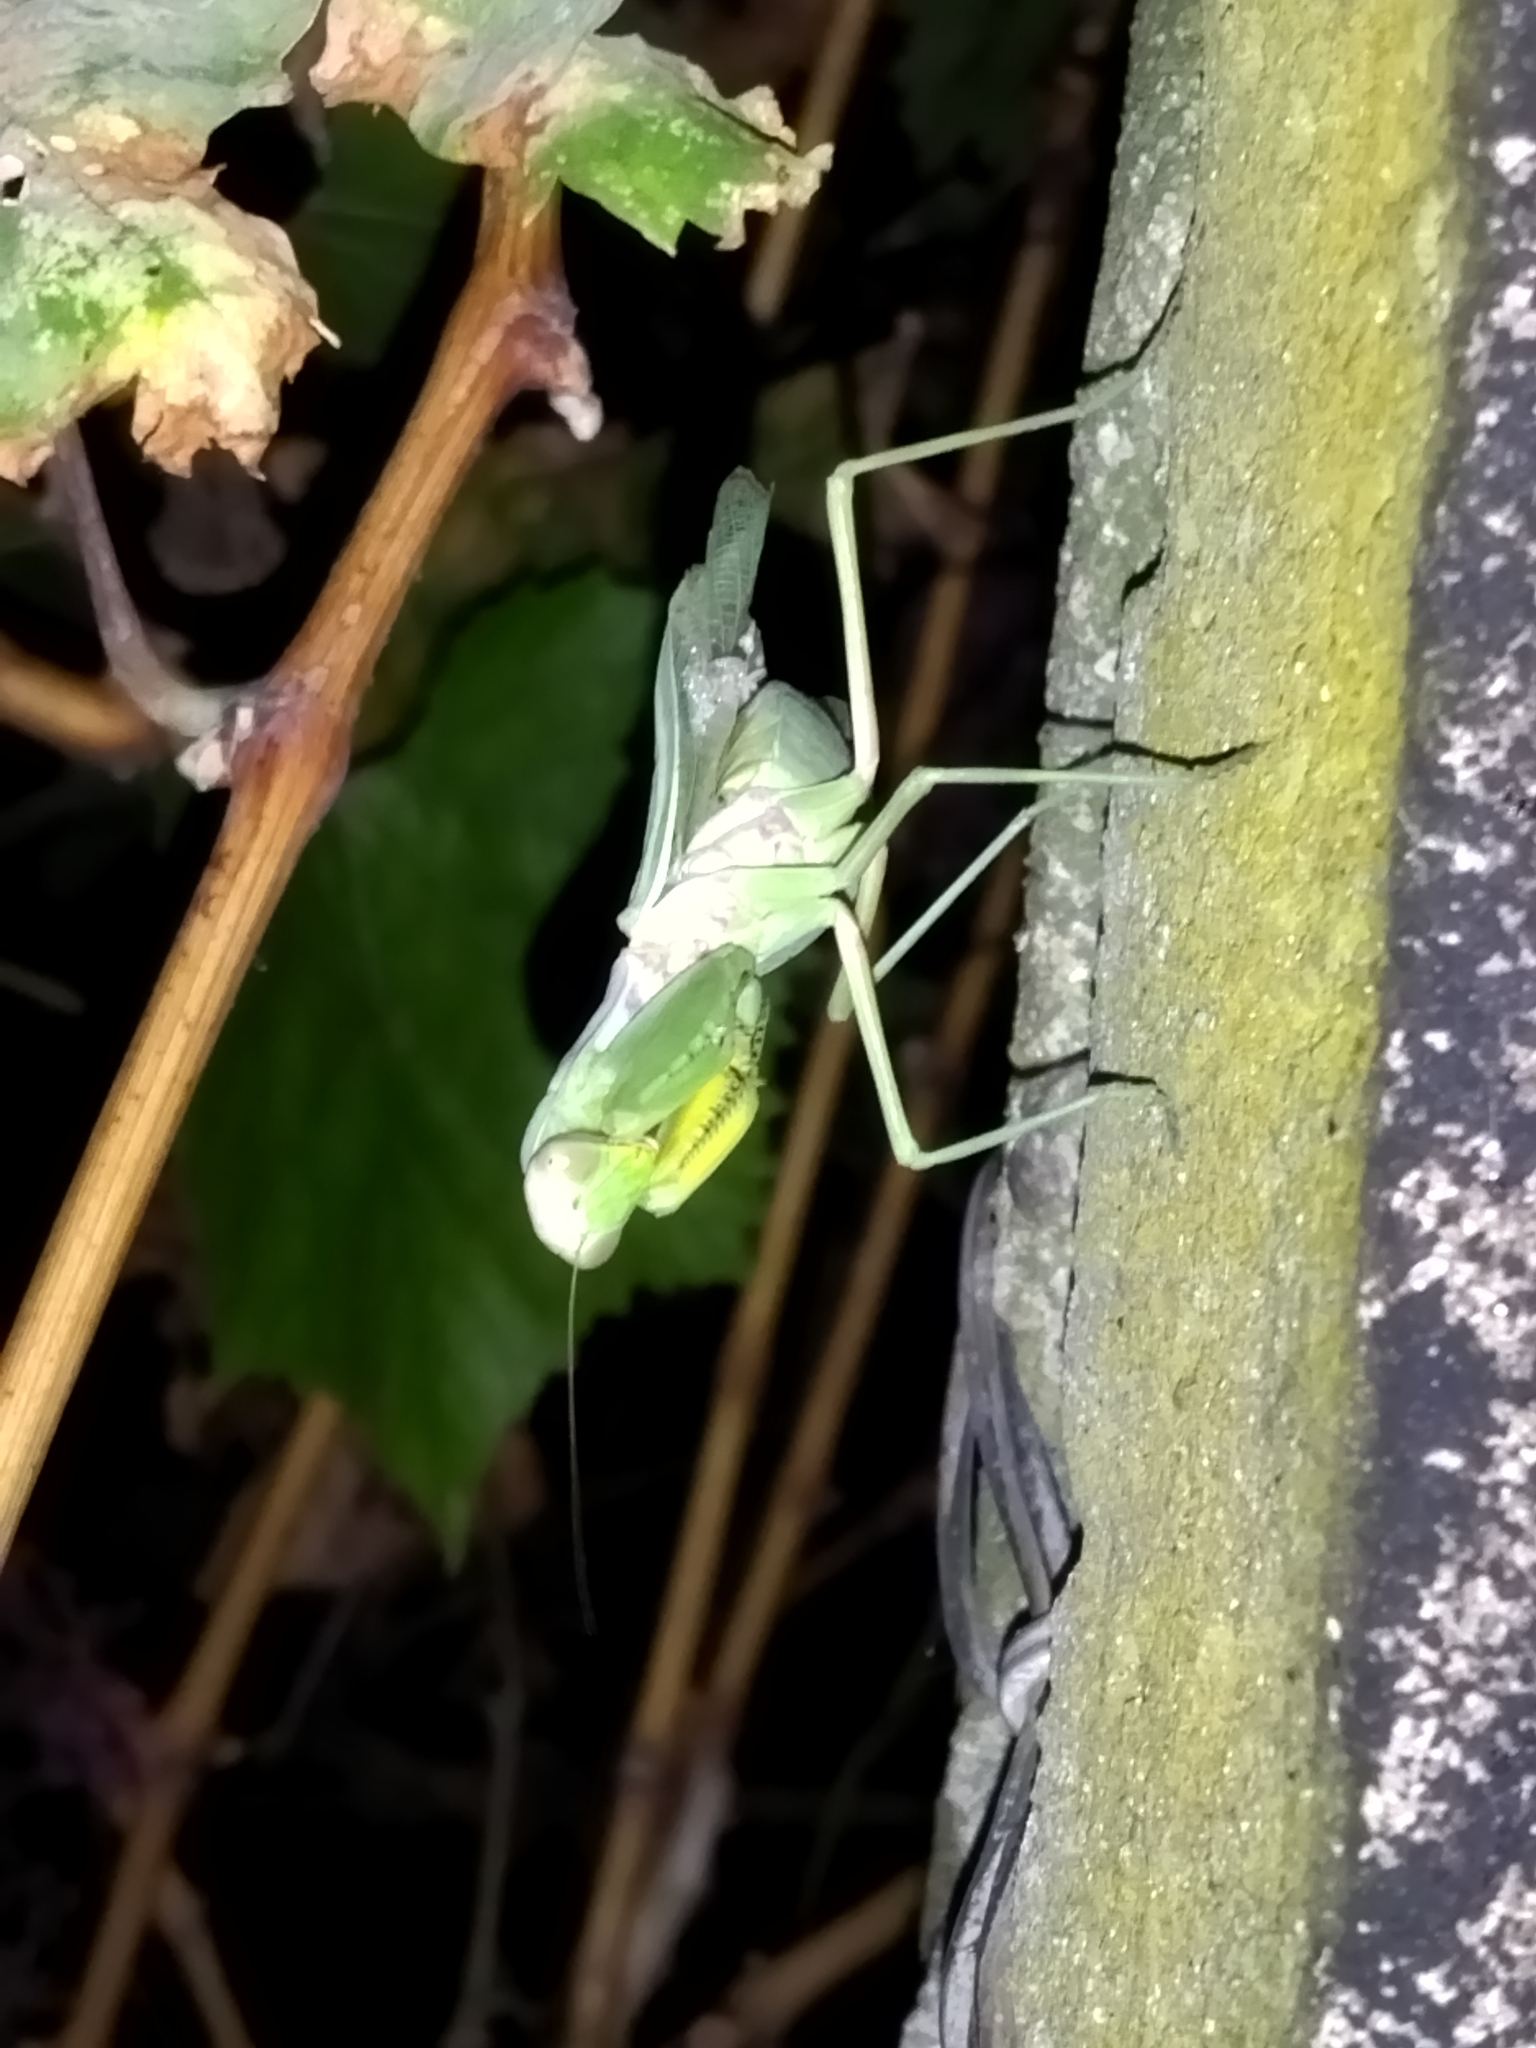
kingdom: Animalia
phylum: Arthropoda
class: Insecta
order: Mantodea
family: Mantidae
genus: Hierodula
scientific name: Hierodula transcaucasica
